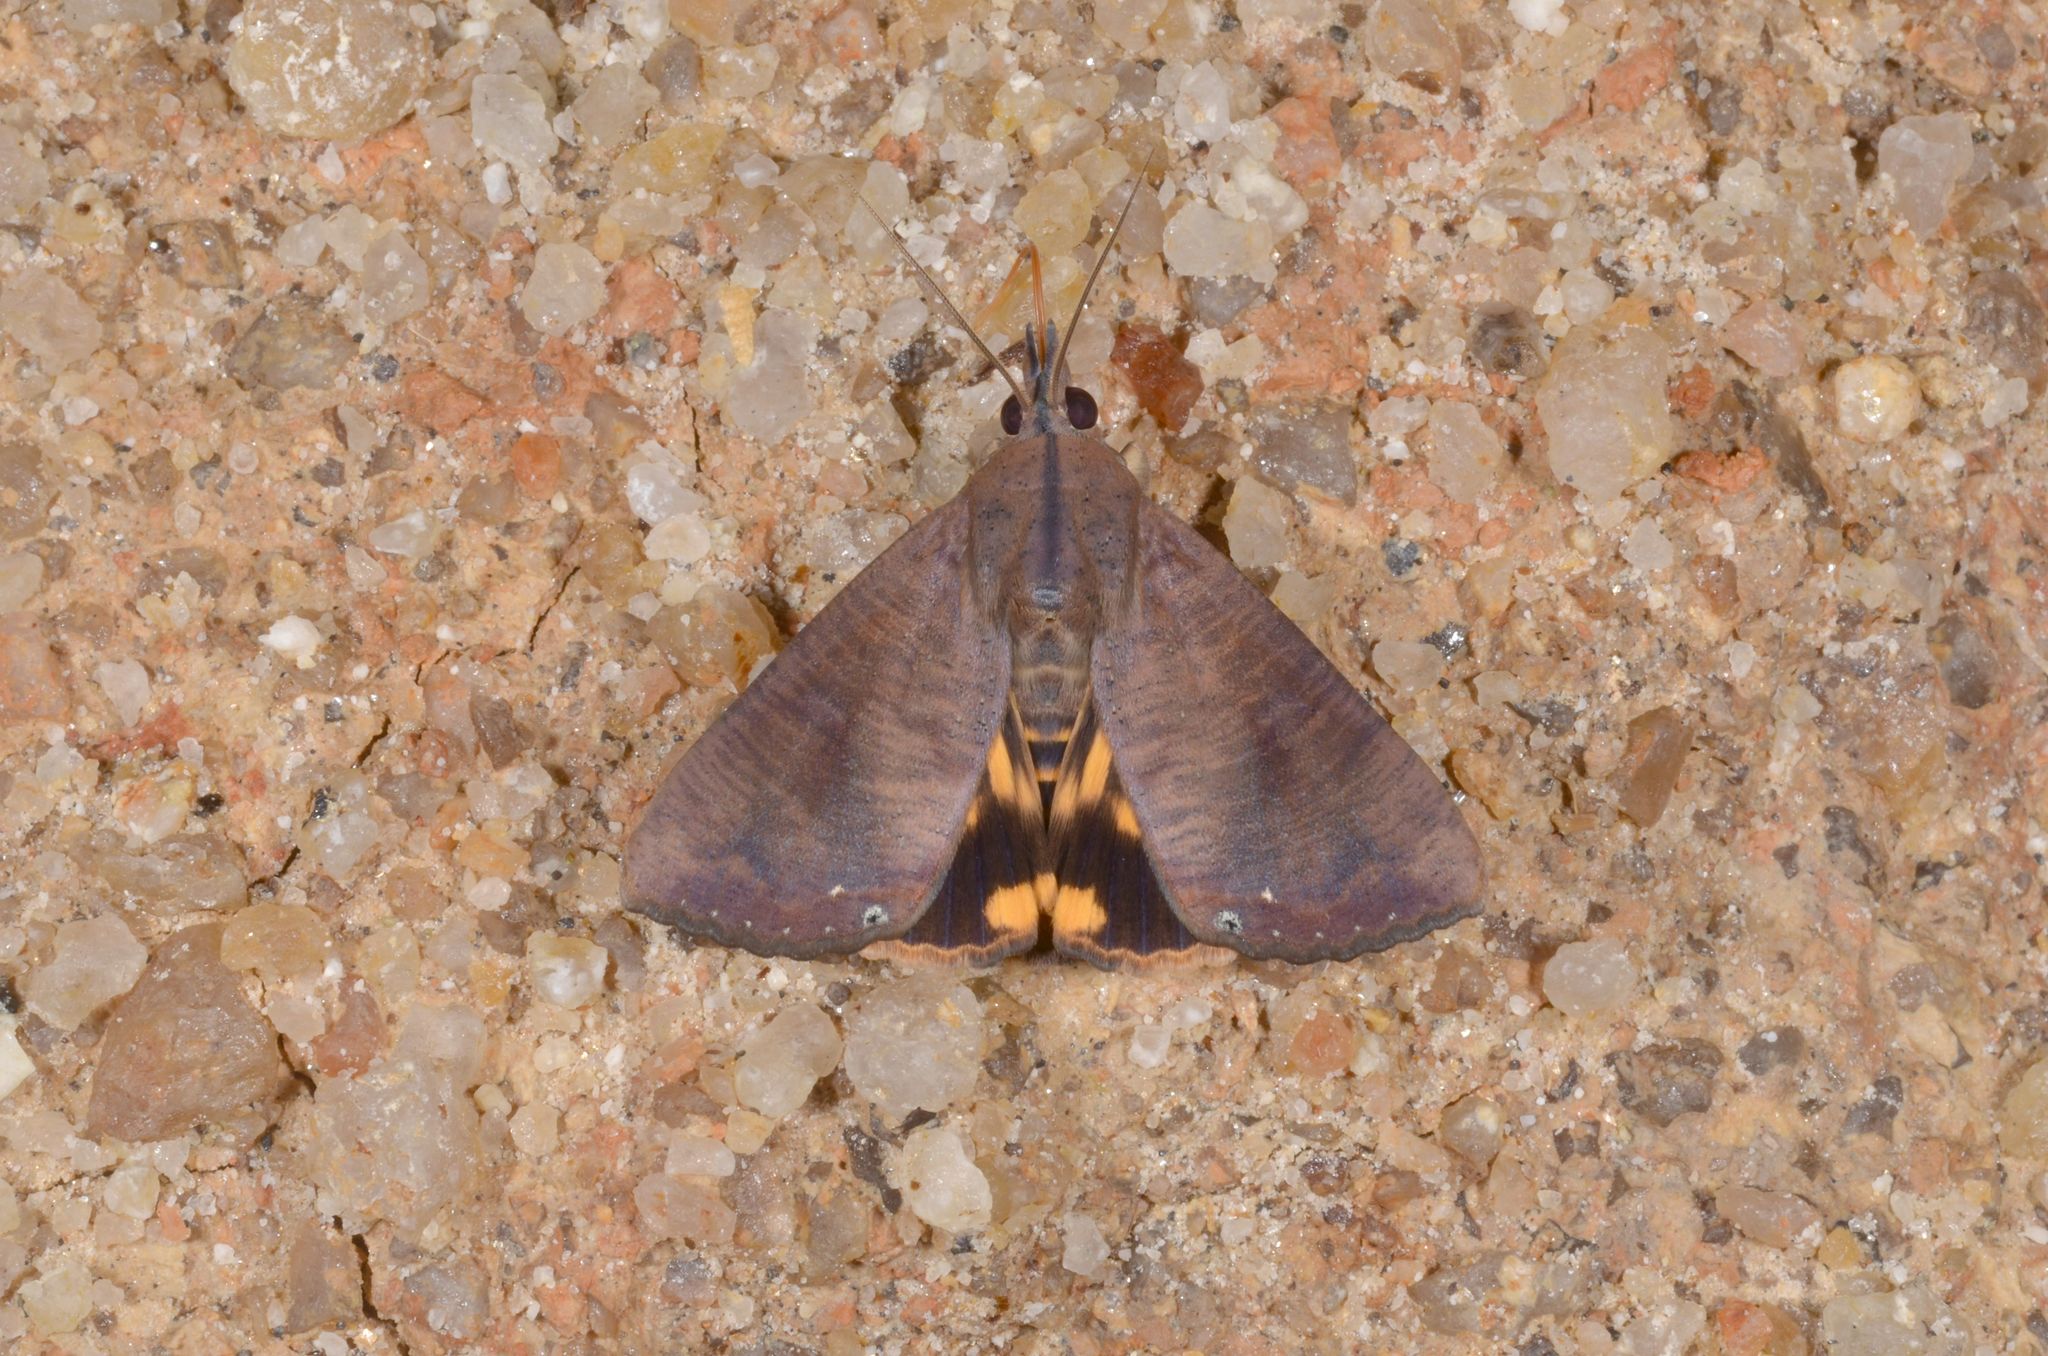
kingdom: Animalia
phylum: Arthropoda
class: Insecta
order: Lepidoptera
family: Erebidae
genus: Hypocala
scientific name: Hypocala violacea
